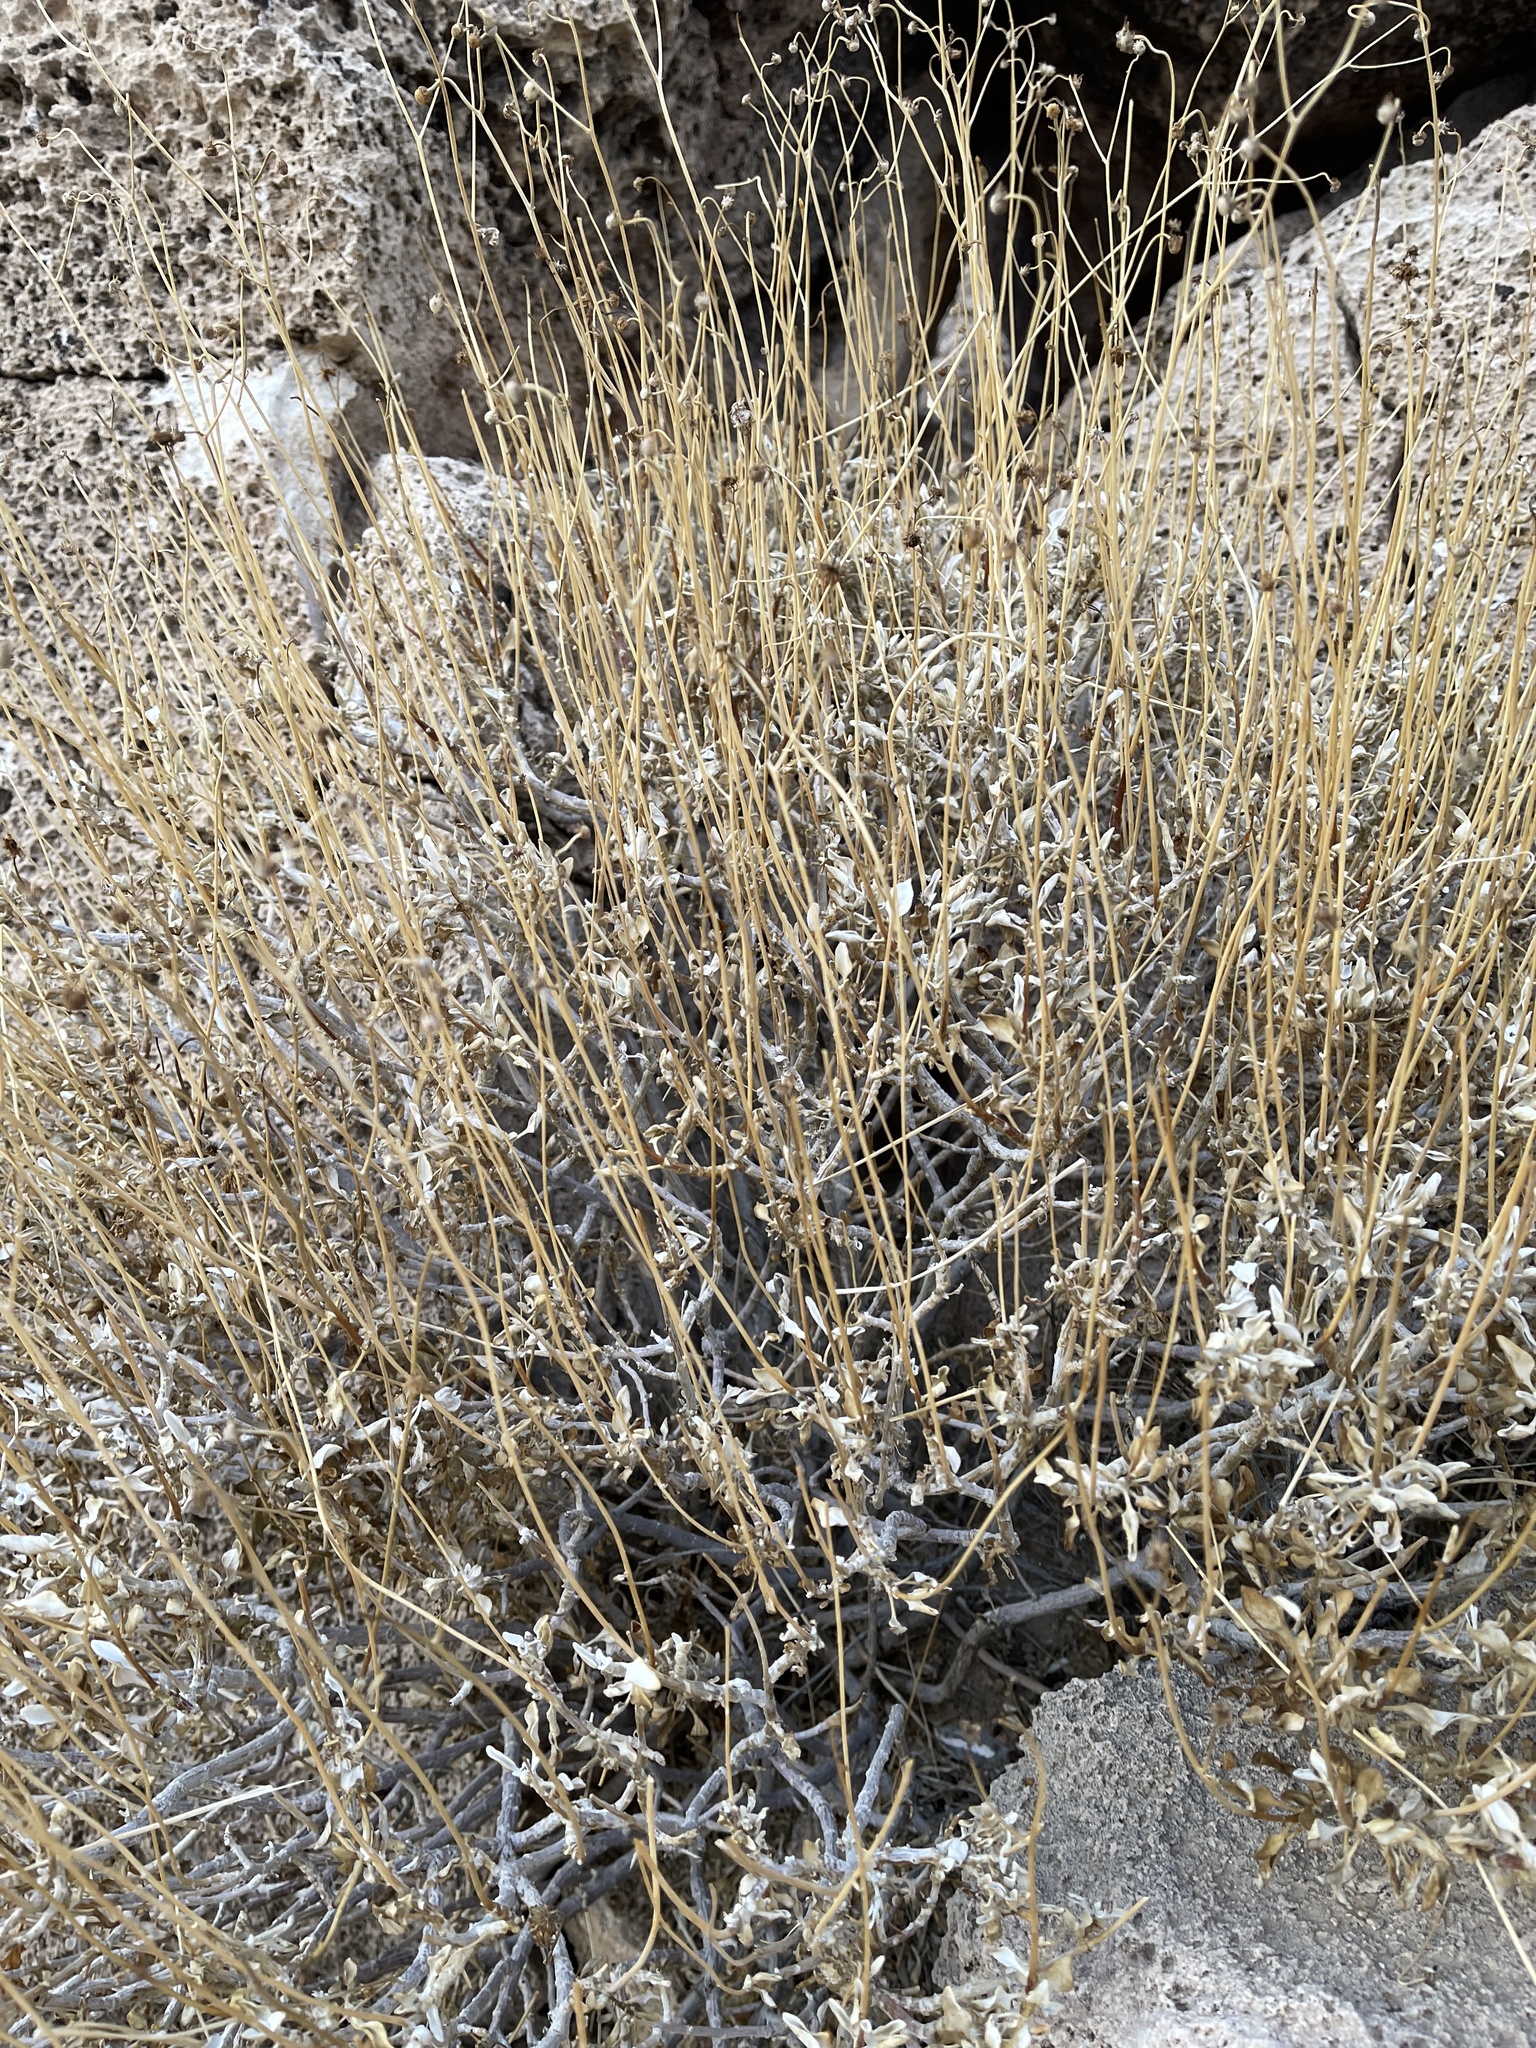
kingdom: Plantae
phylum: Tracheophyta
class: Magnoliopsida
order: Asterales
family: Asteraceae
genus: Encelia
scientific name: Encelia farinosa
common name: Brittlebush
